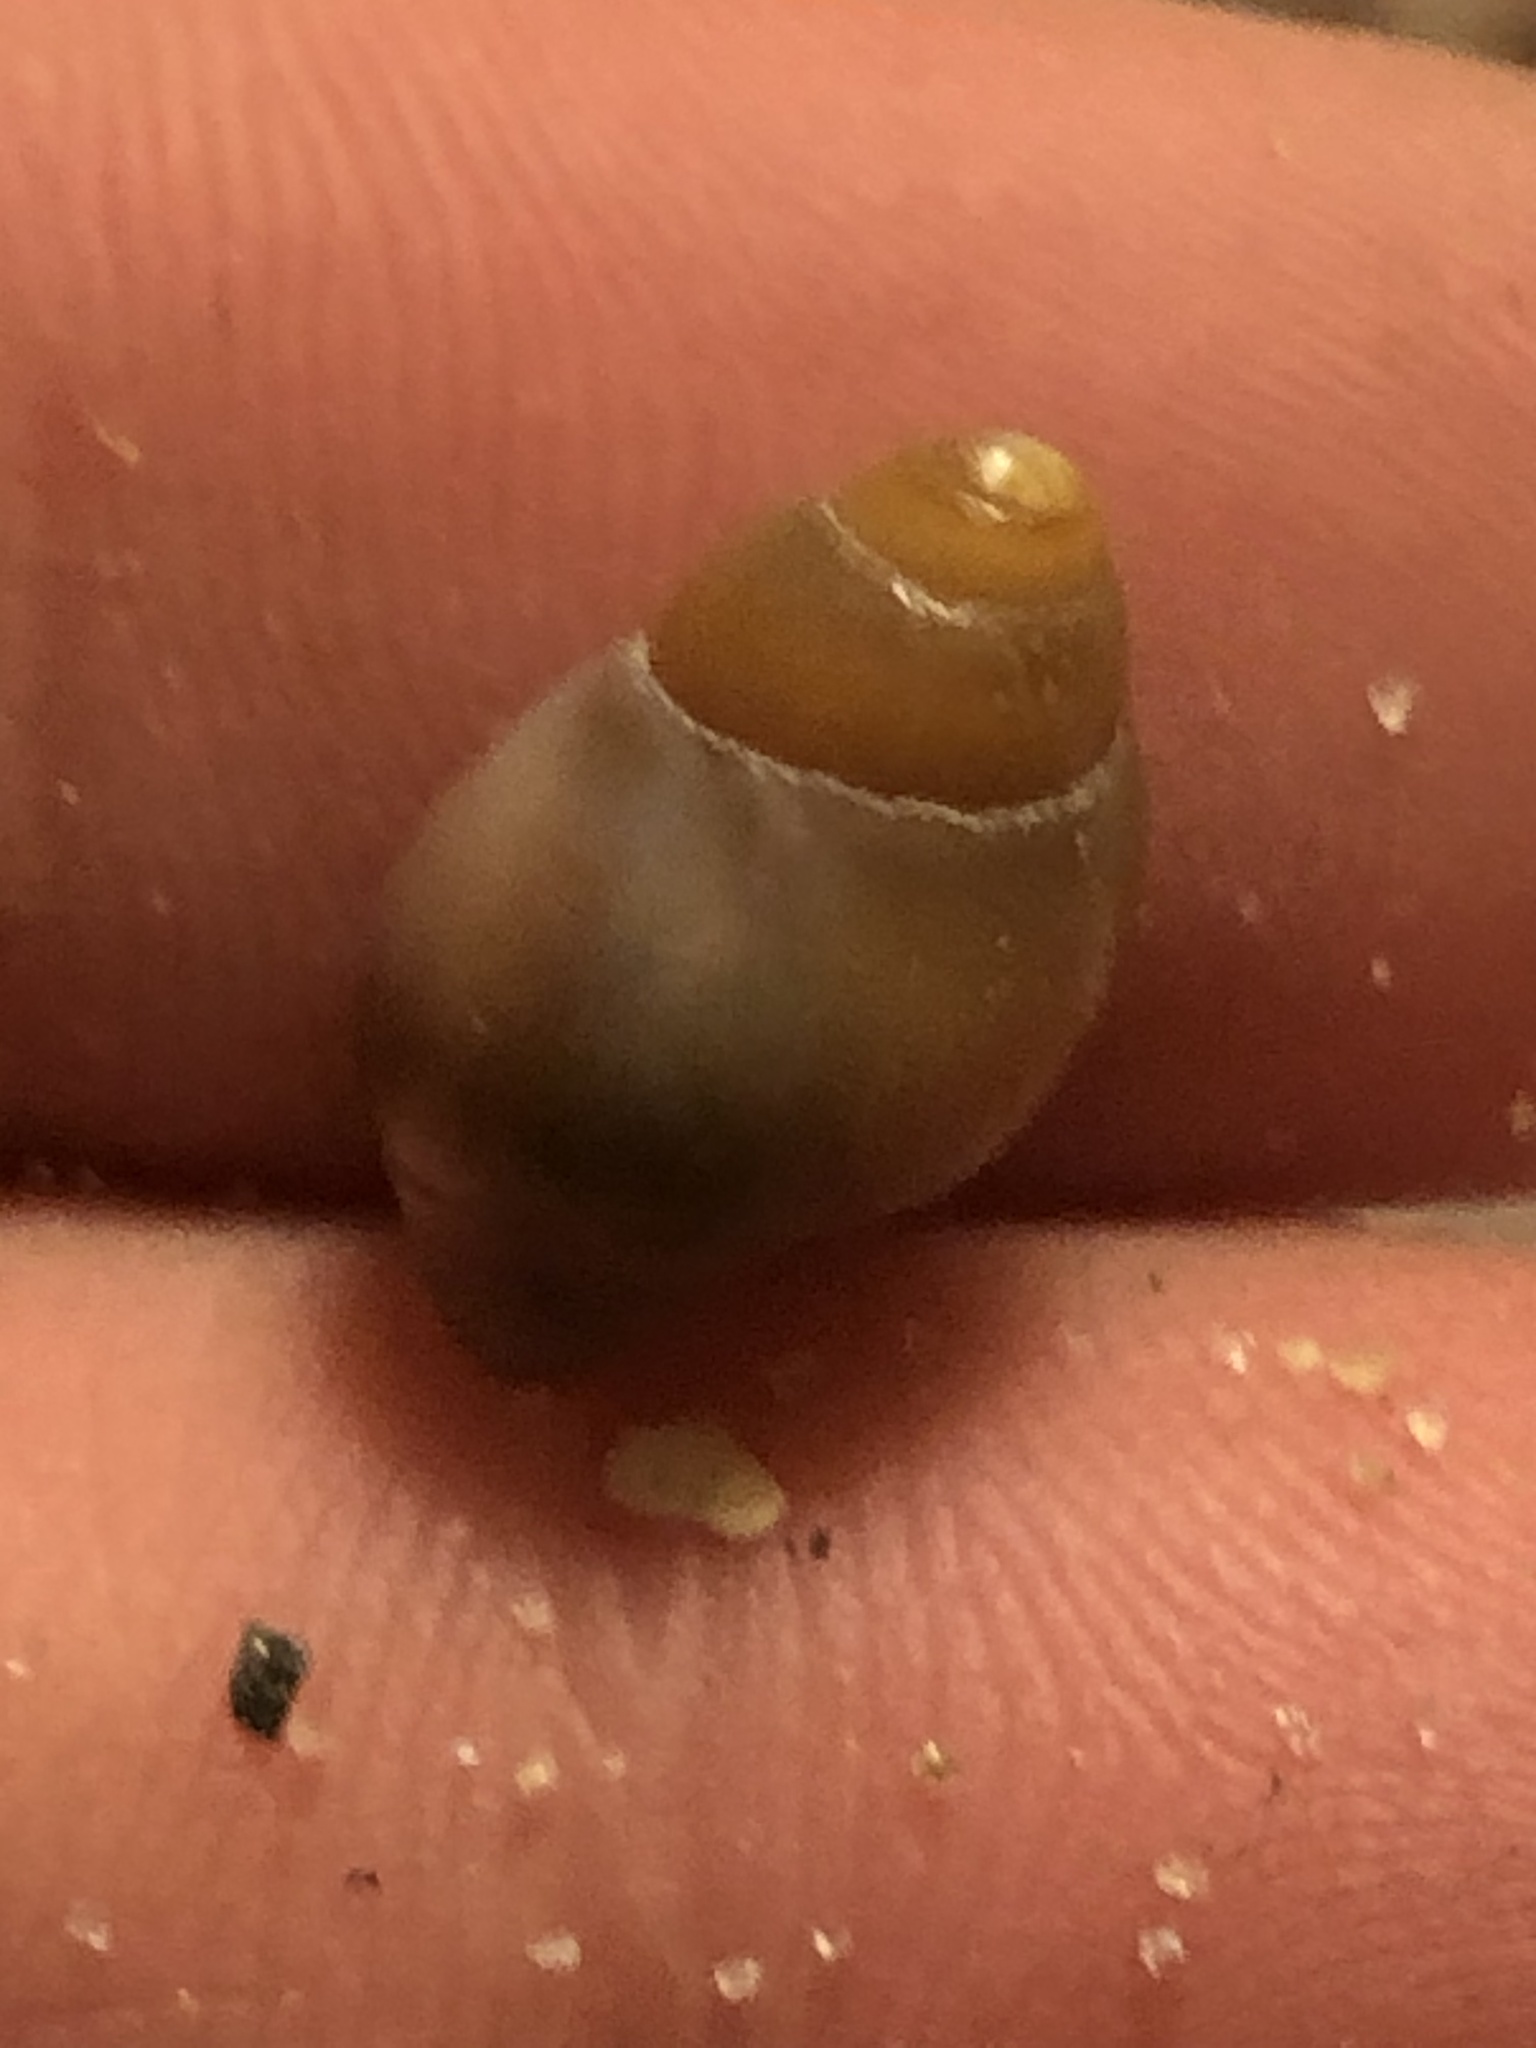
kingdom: Animalia
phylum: Mollusca
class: Gastropoda
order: Neogastropoda
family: Pseudolividae
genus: Macron
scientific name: Macron lividus
